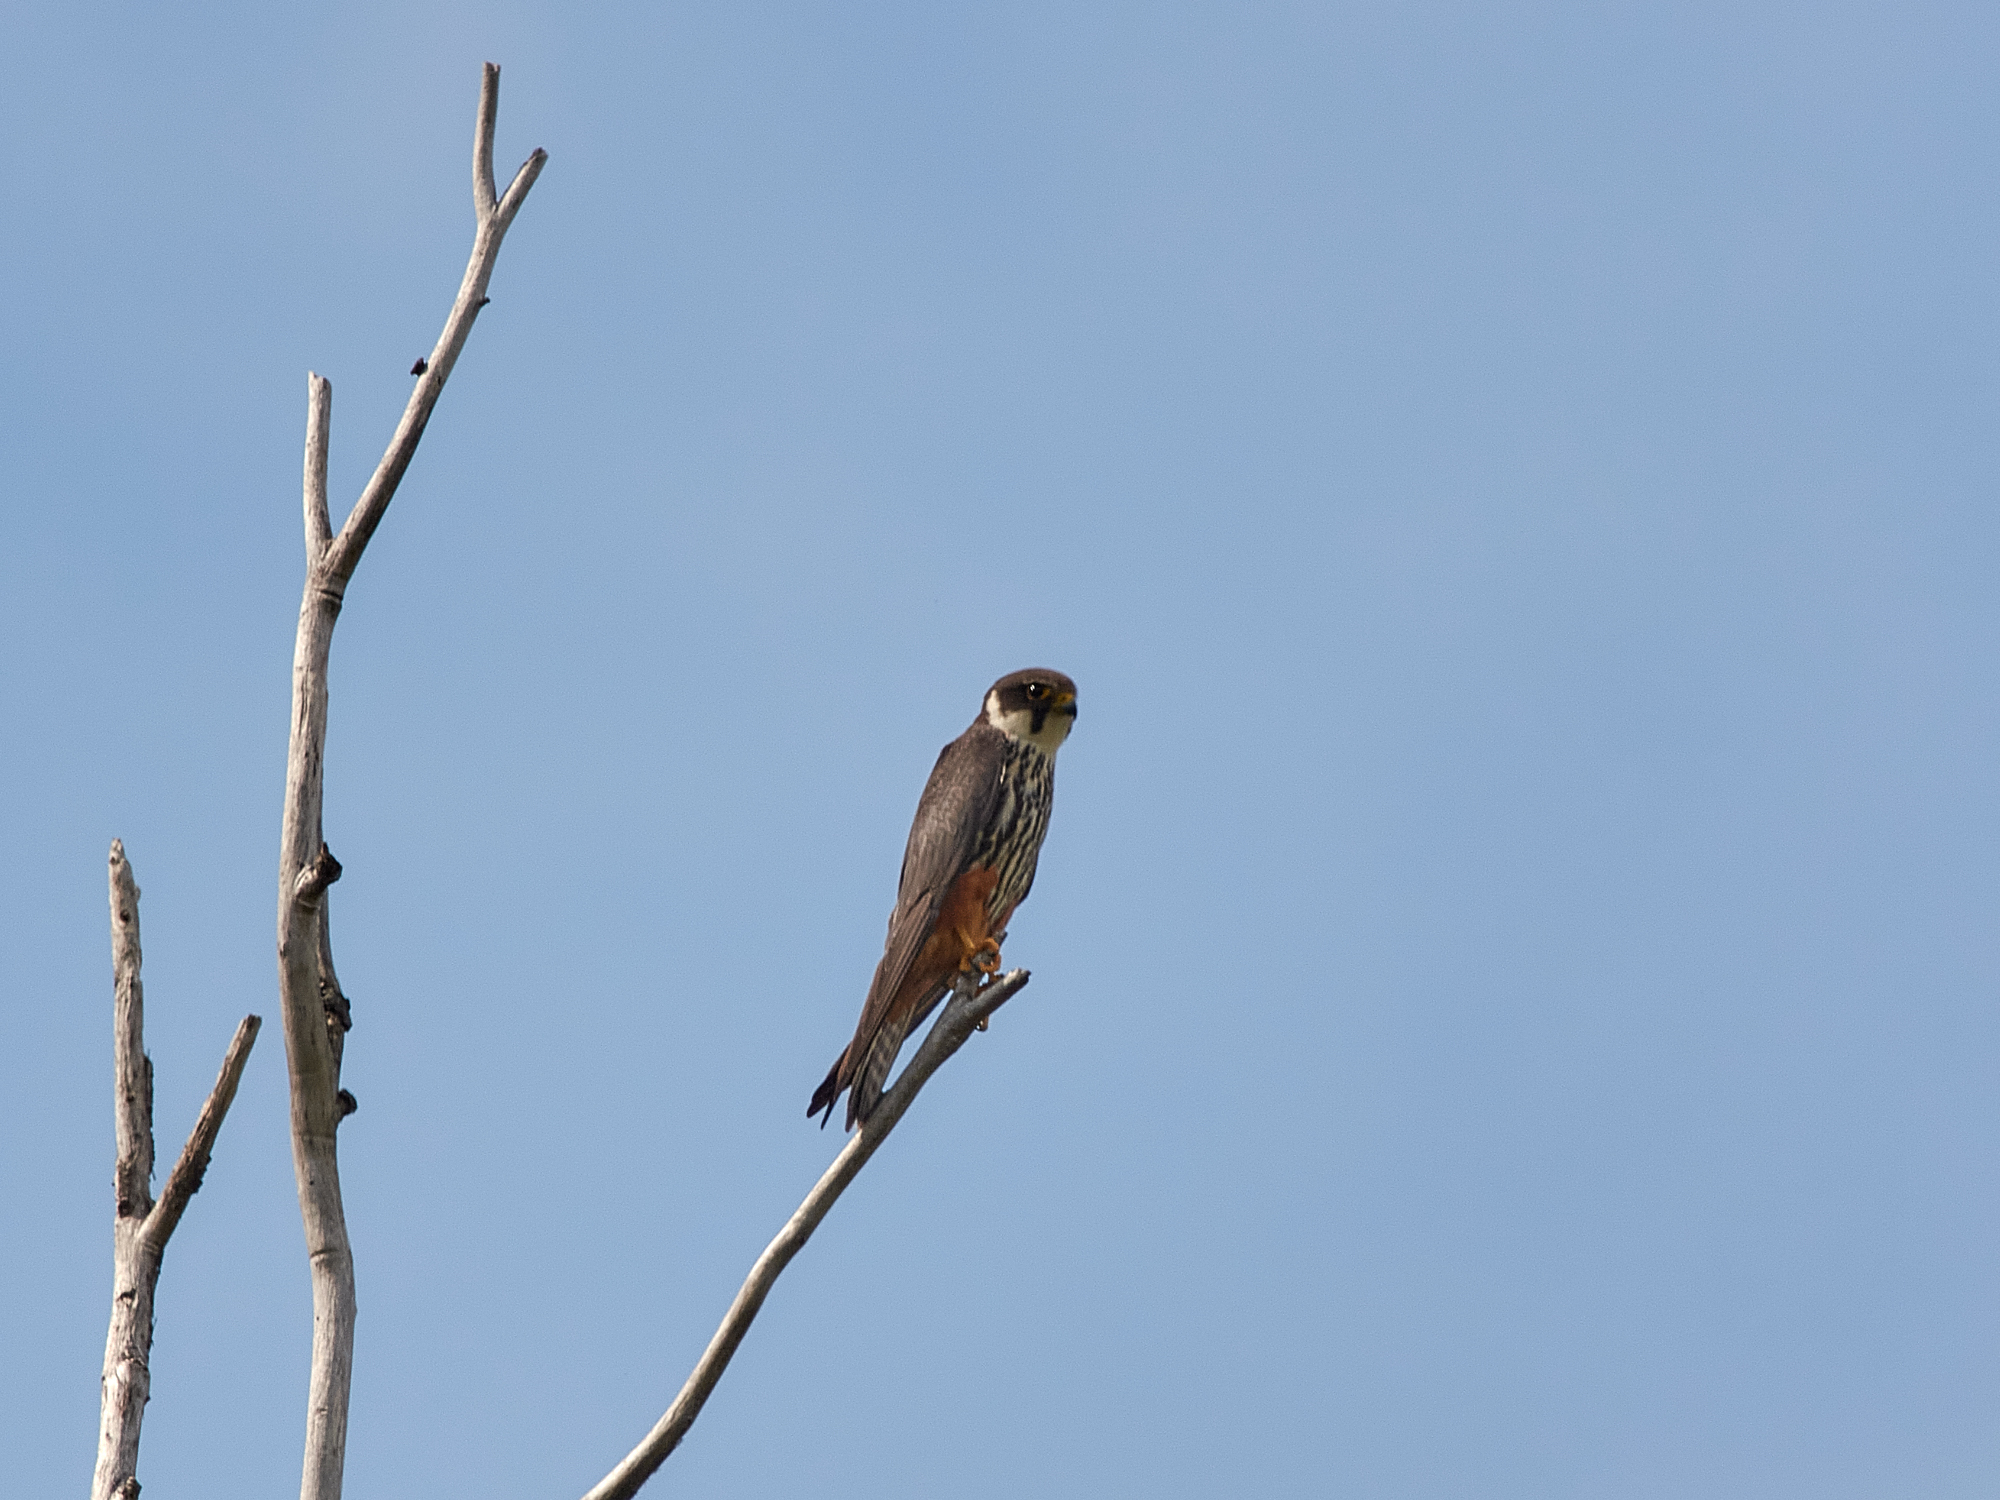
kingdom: Animalia
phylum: Chordata
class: Aves
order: Falconiformes
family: Falconidae
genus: Falco
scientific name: Falco subbuteo
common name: Eurasian hobby
